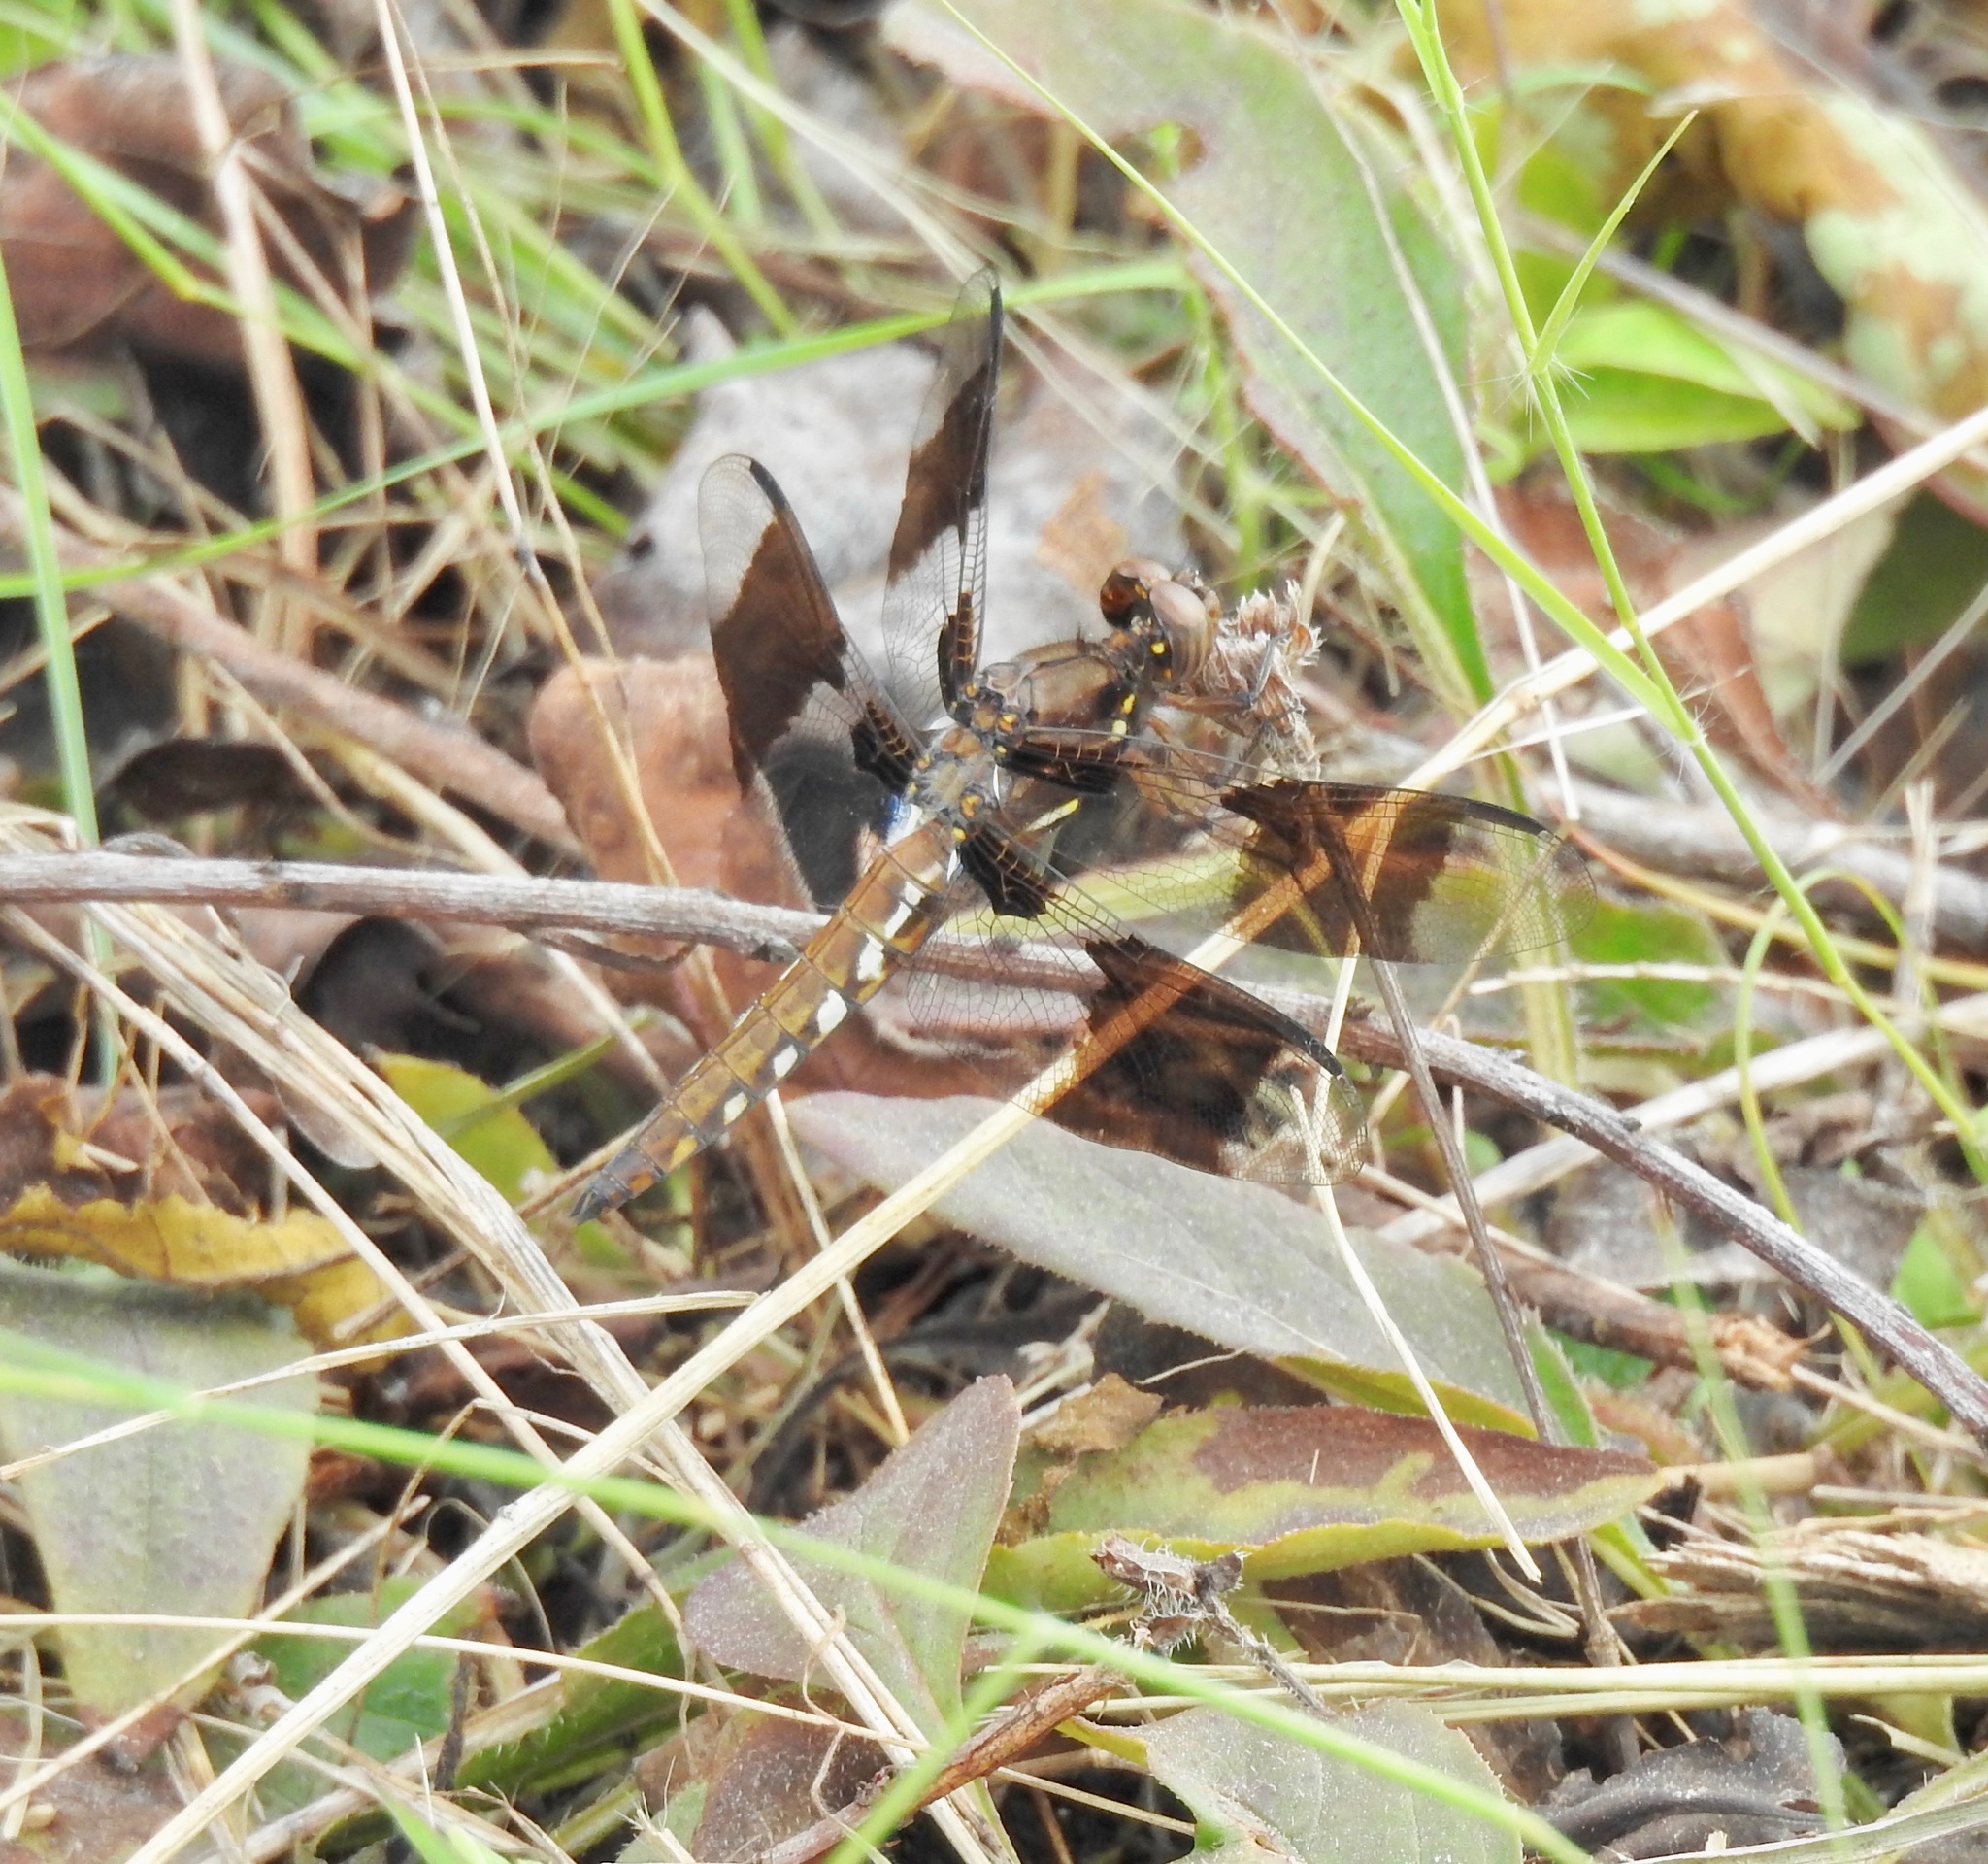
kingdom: Animalia
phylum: Arthropoda
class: Insecta
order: Odonata
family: Libellulidae
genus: Plathemis
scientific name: Plathemis lydia
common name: Common whitetail
